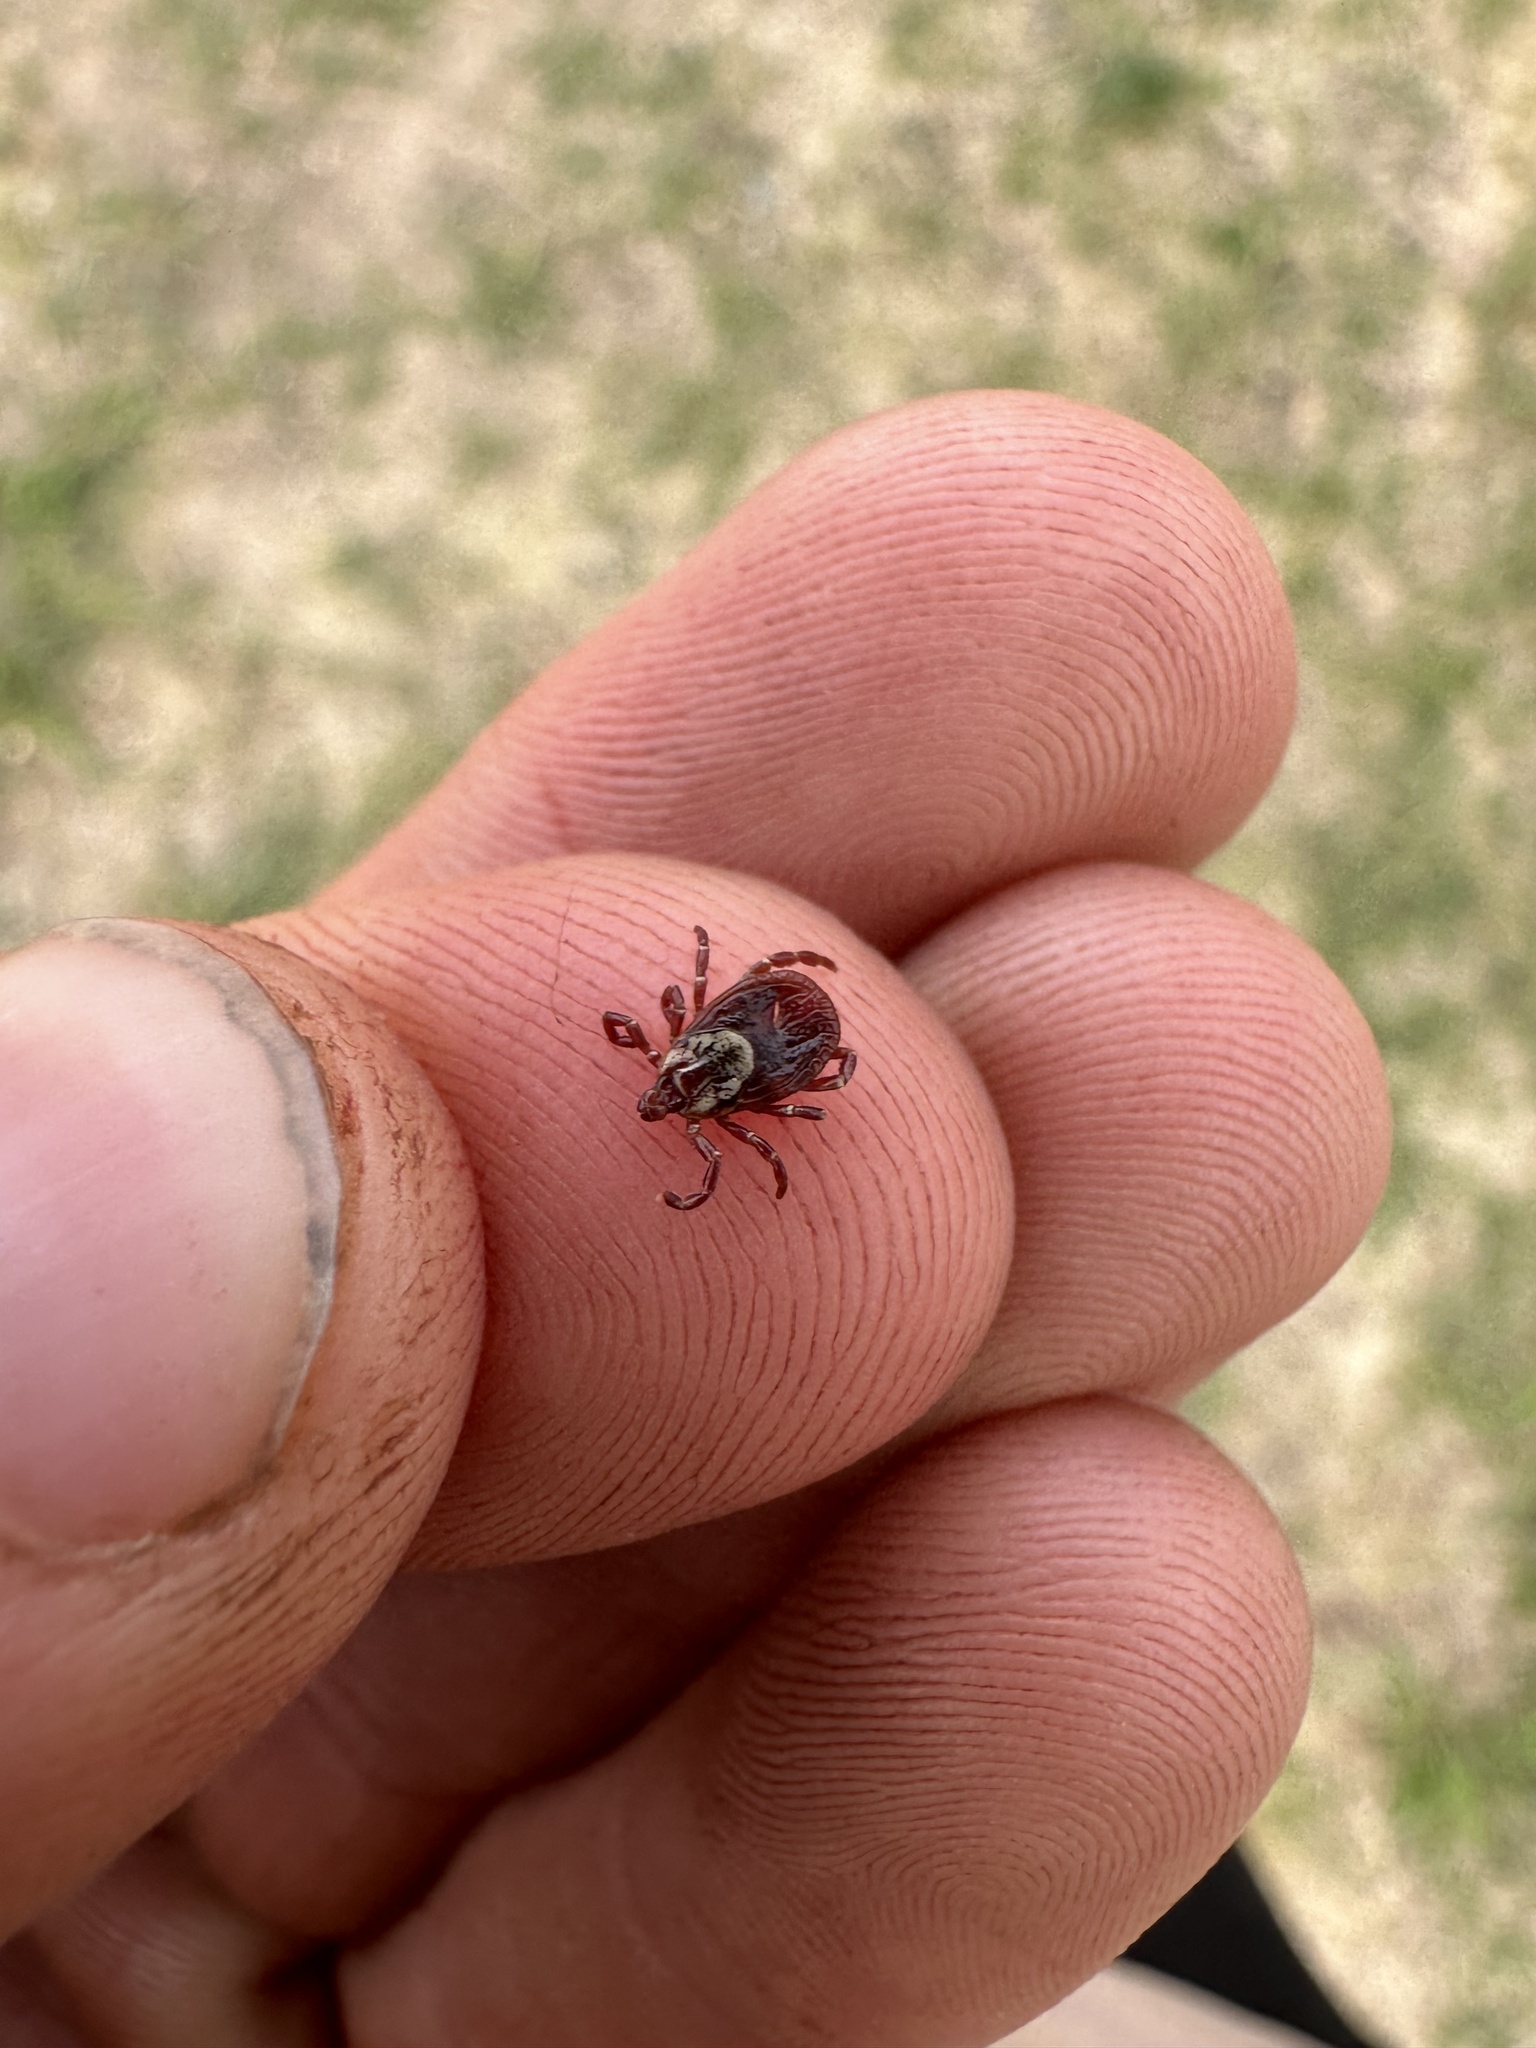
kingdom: Animalia
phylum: Arthropoda
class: Arachnida
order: Ixodida
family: Ixodidae
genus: Dermacentor
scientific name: Dermacentor variabilis
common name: American dog tick
